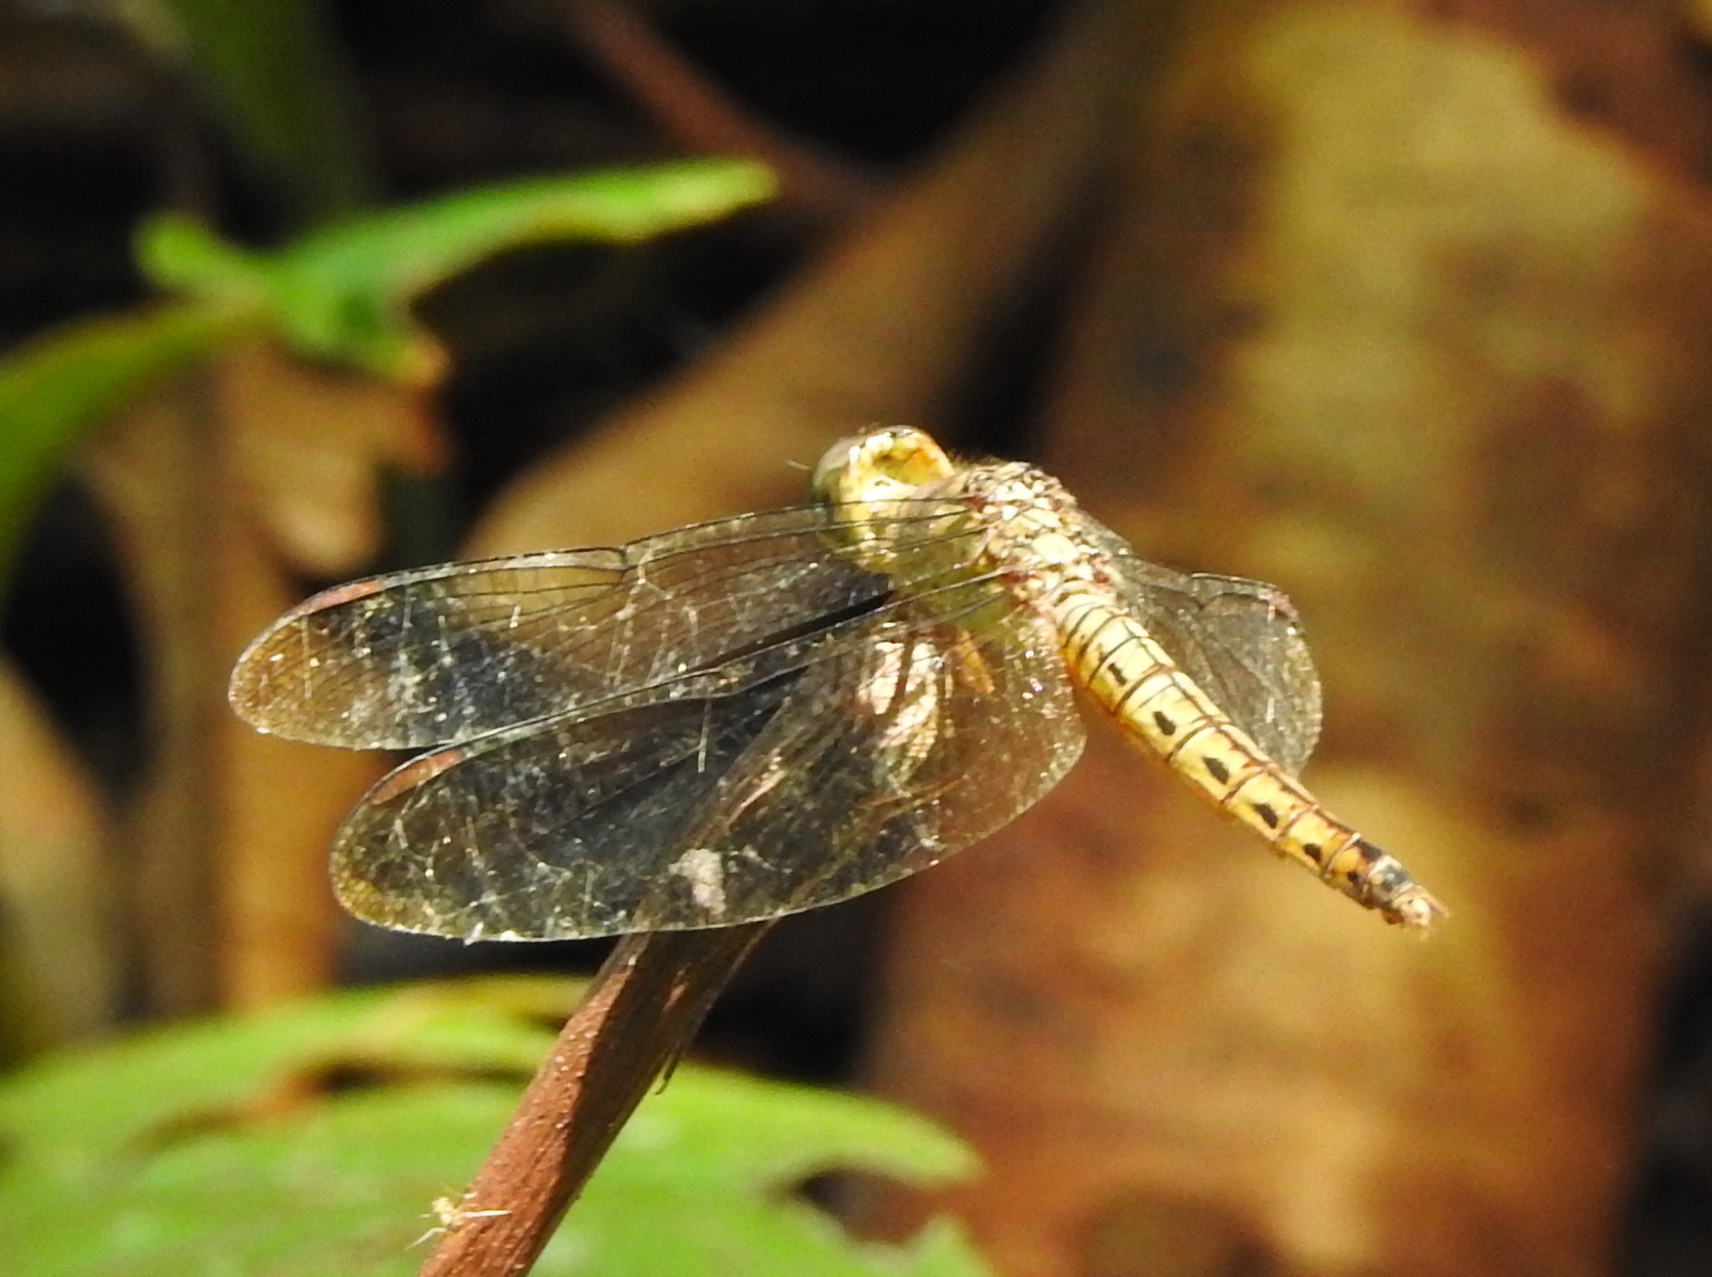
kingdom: Animalia
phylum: Arthropoda
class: Insecta
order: Odonata
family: Libellulidae
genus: Neurothemis
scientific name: Neurothemis fluctuans
